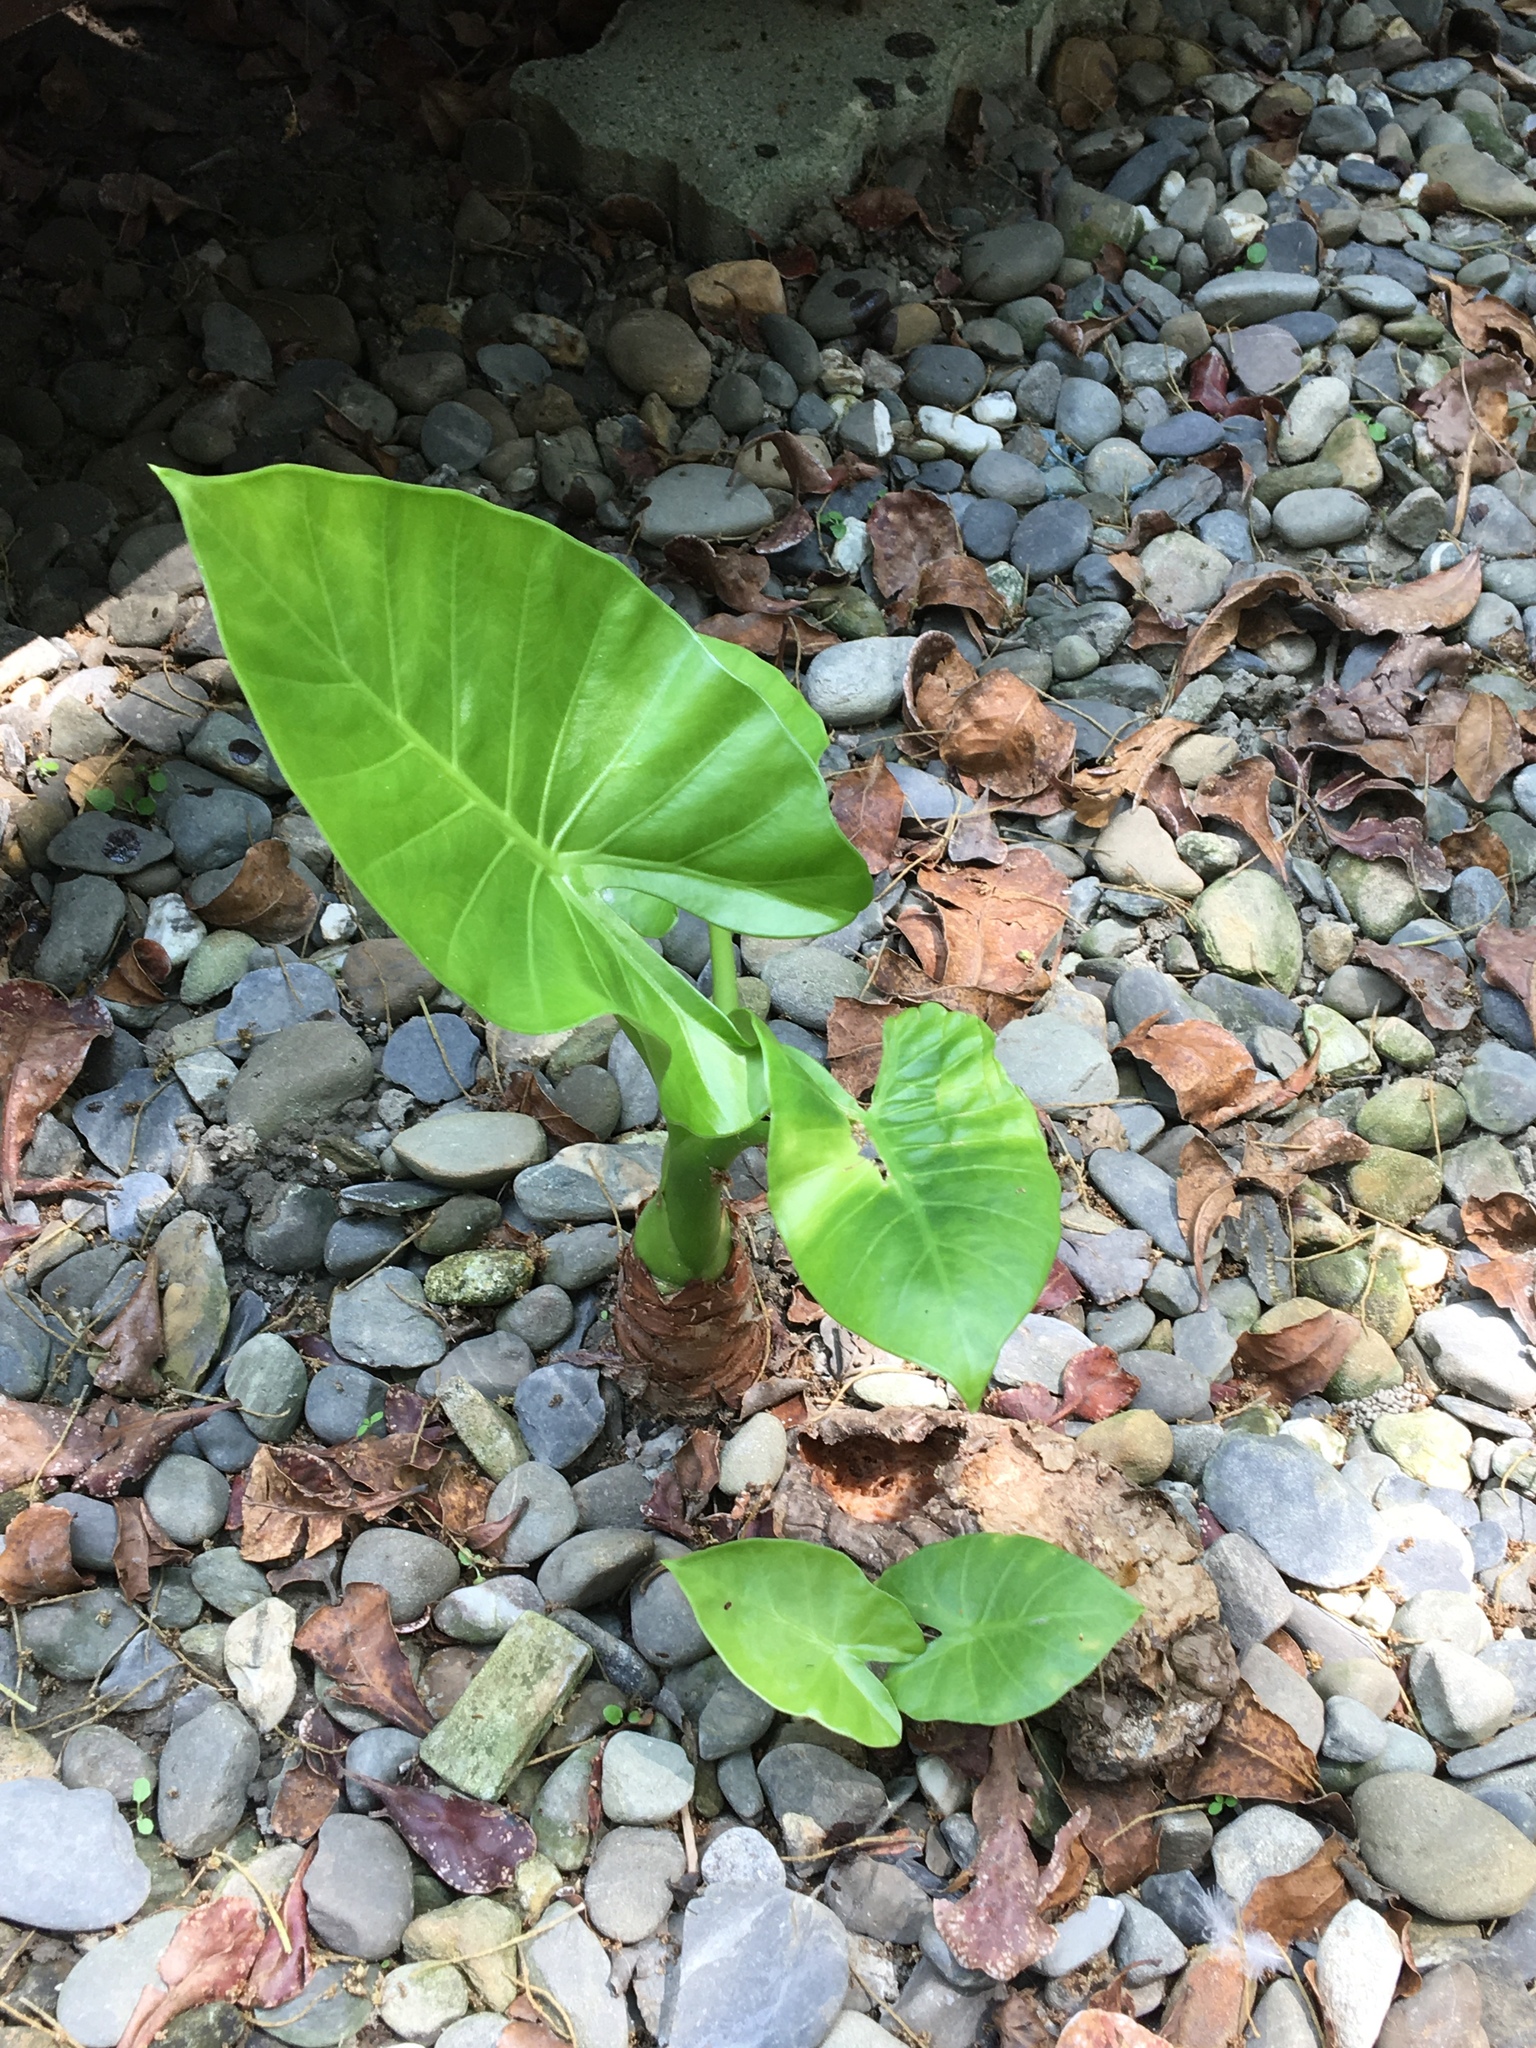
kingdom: Plantae
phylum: Tracheophyta
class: Liliopsida
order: Alismatales
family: Araceae
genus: Alocasia
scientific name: Alocasia odora
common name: Asian taro
